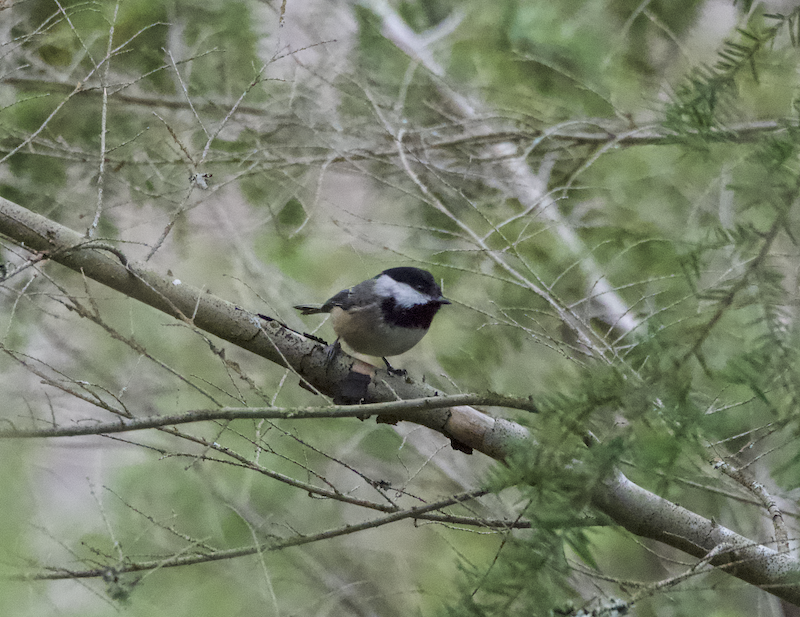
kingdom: Animalia
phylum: Chordata
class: Aves
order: Passeriformes
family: Paridae
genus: Poecile
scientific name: Poecile atricapillus
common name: Black-capped chickadee
